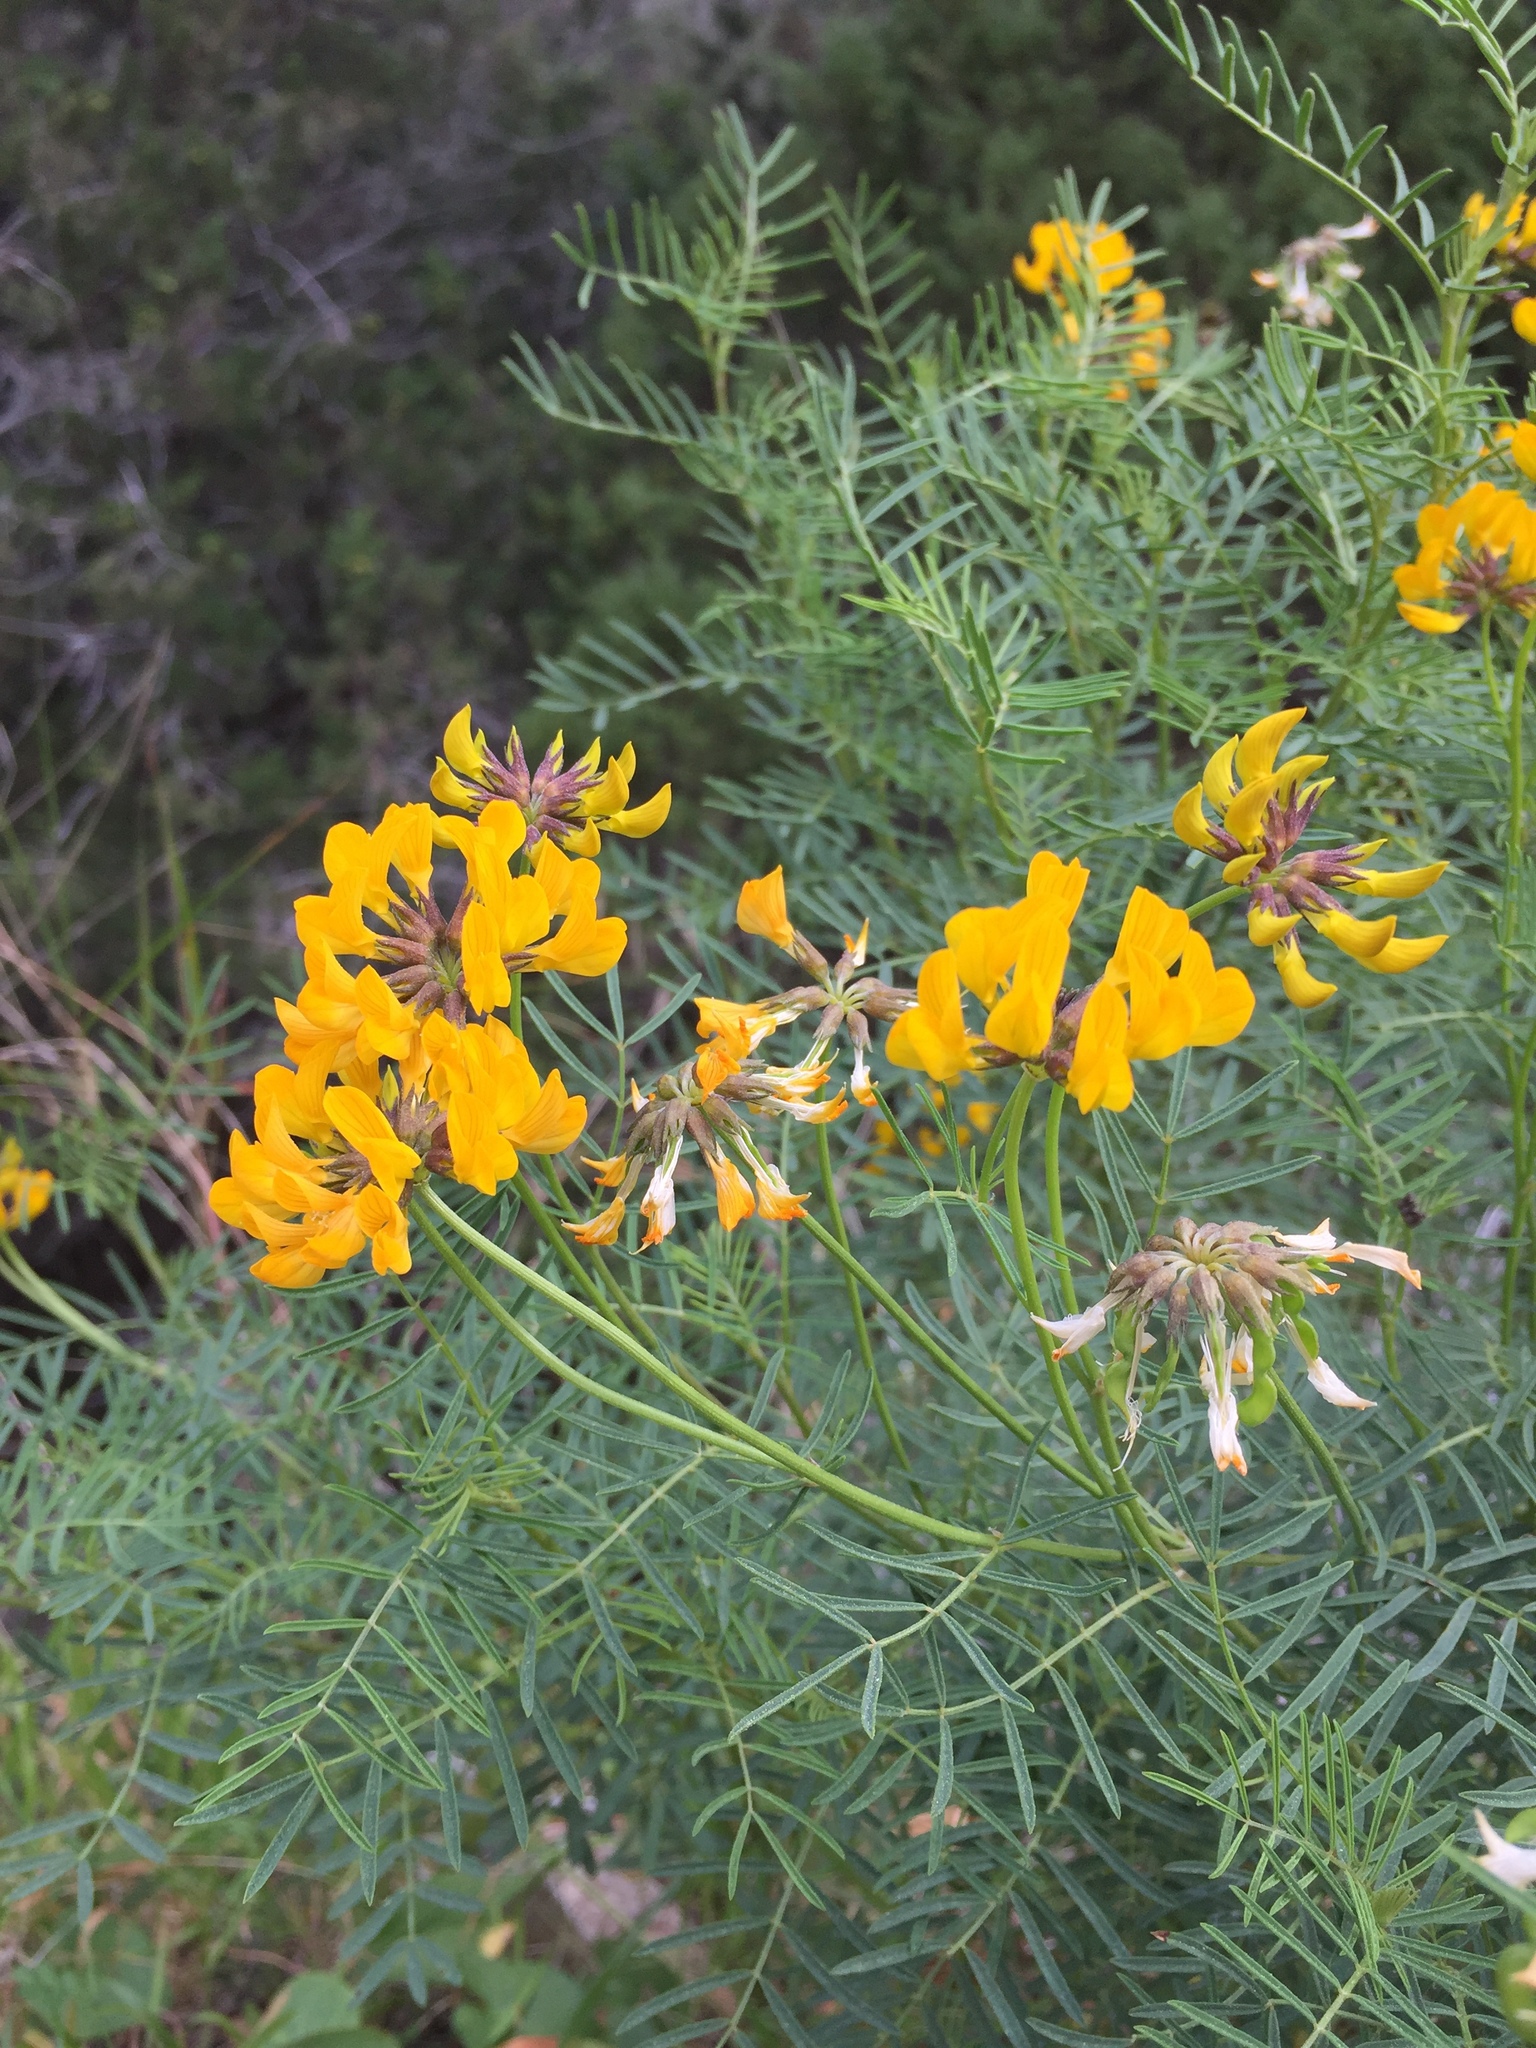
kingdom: Plantae
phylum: Tracheophyta
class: Magnoliopsida
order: Fabales
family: Fabaceae
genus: Hippocrepis
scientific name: Hippocrepis grosii
